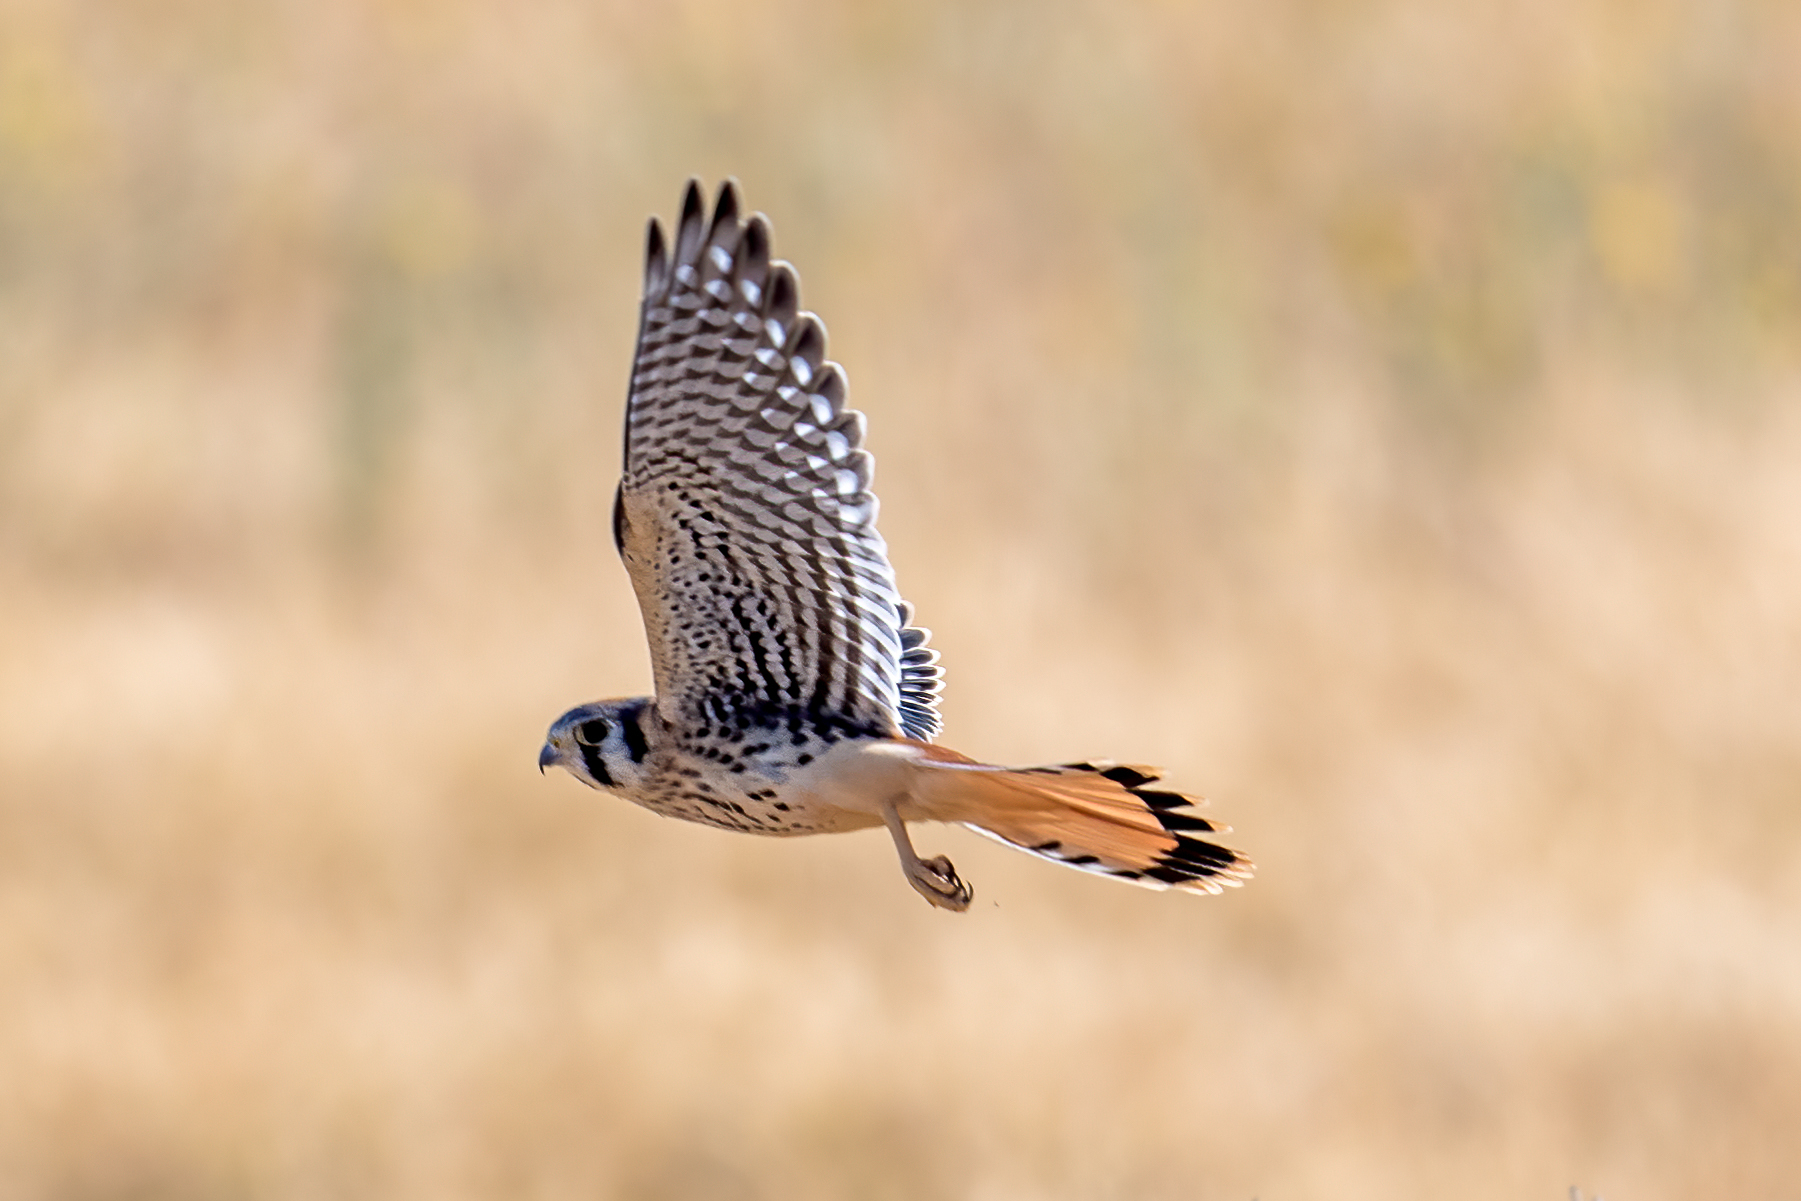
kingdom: Animalia
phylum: Chordata
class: Aves
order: Falconiformes
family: Falconidae
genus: Falco
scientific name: Falco sparverius
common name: American kestrel
